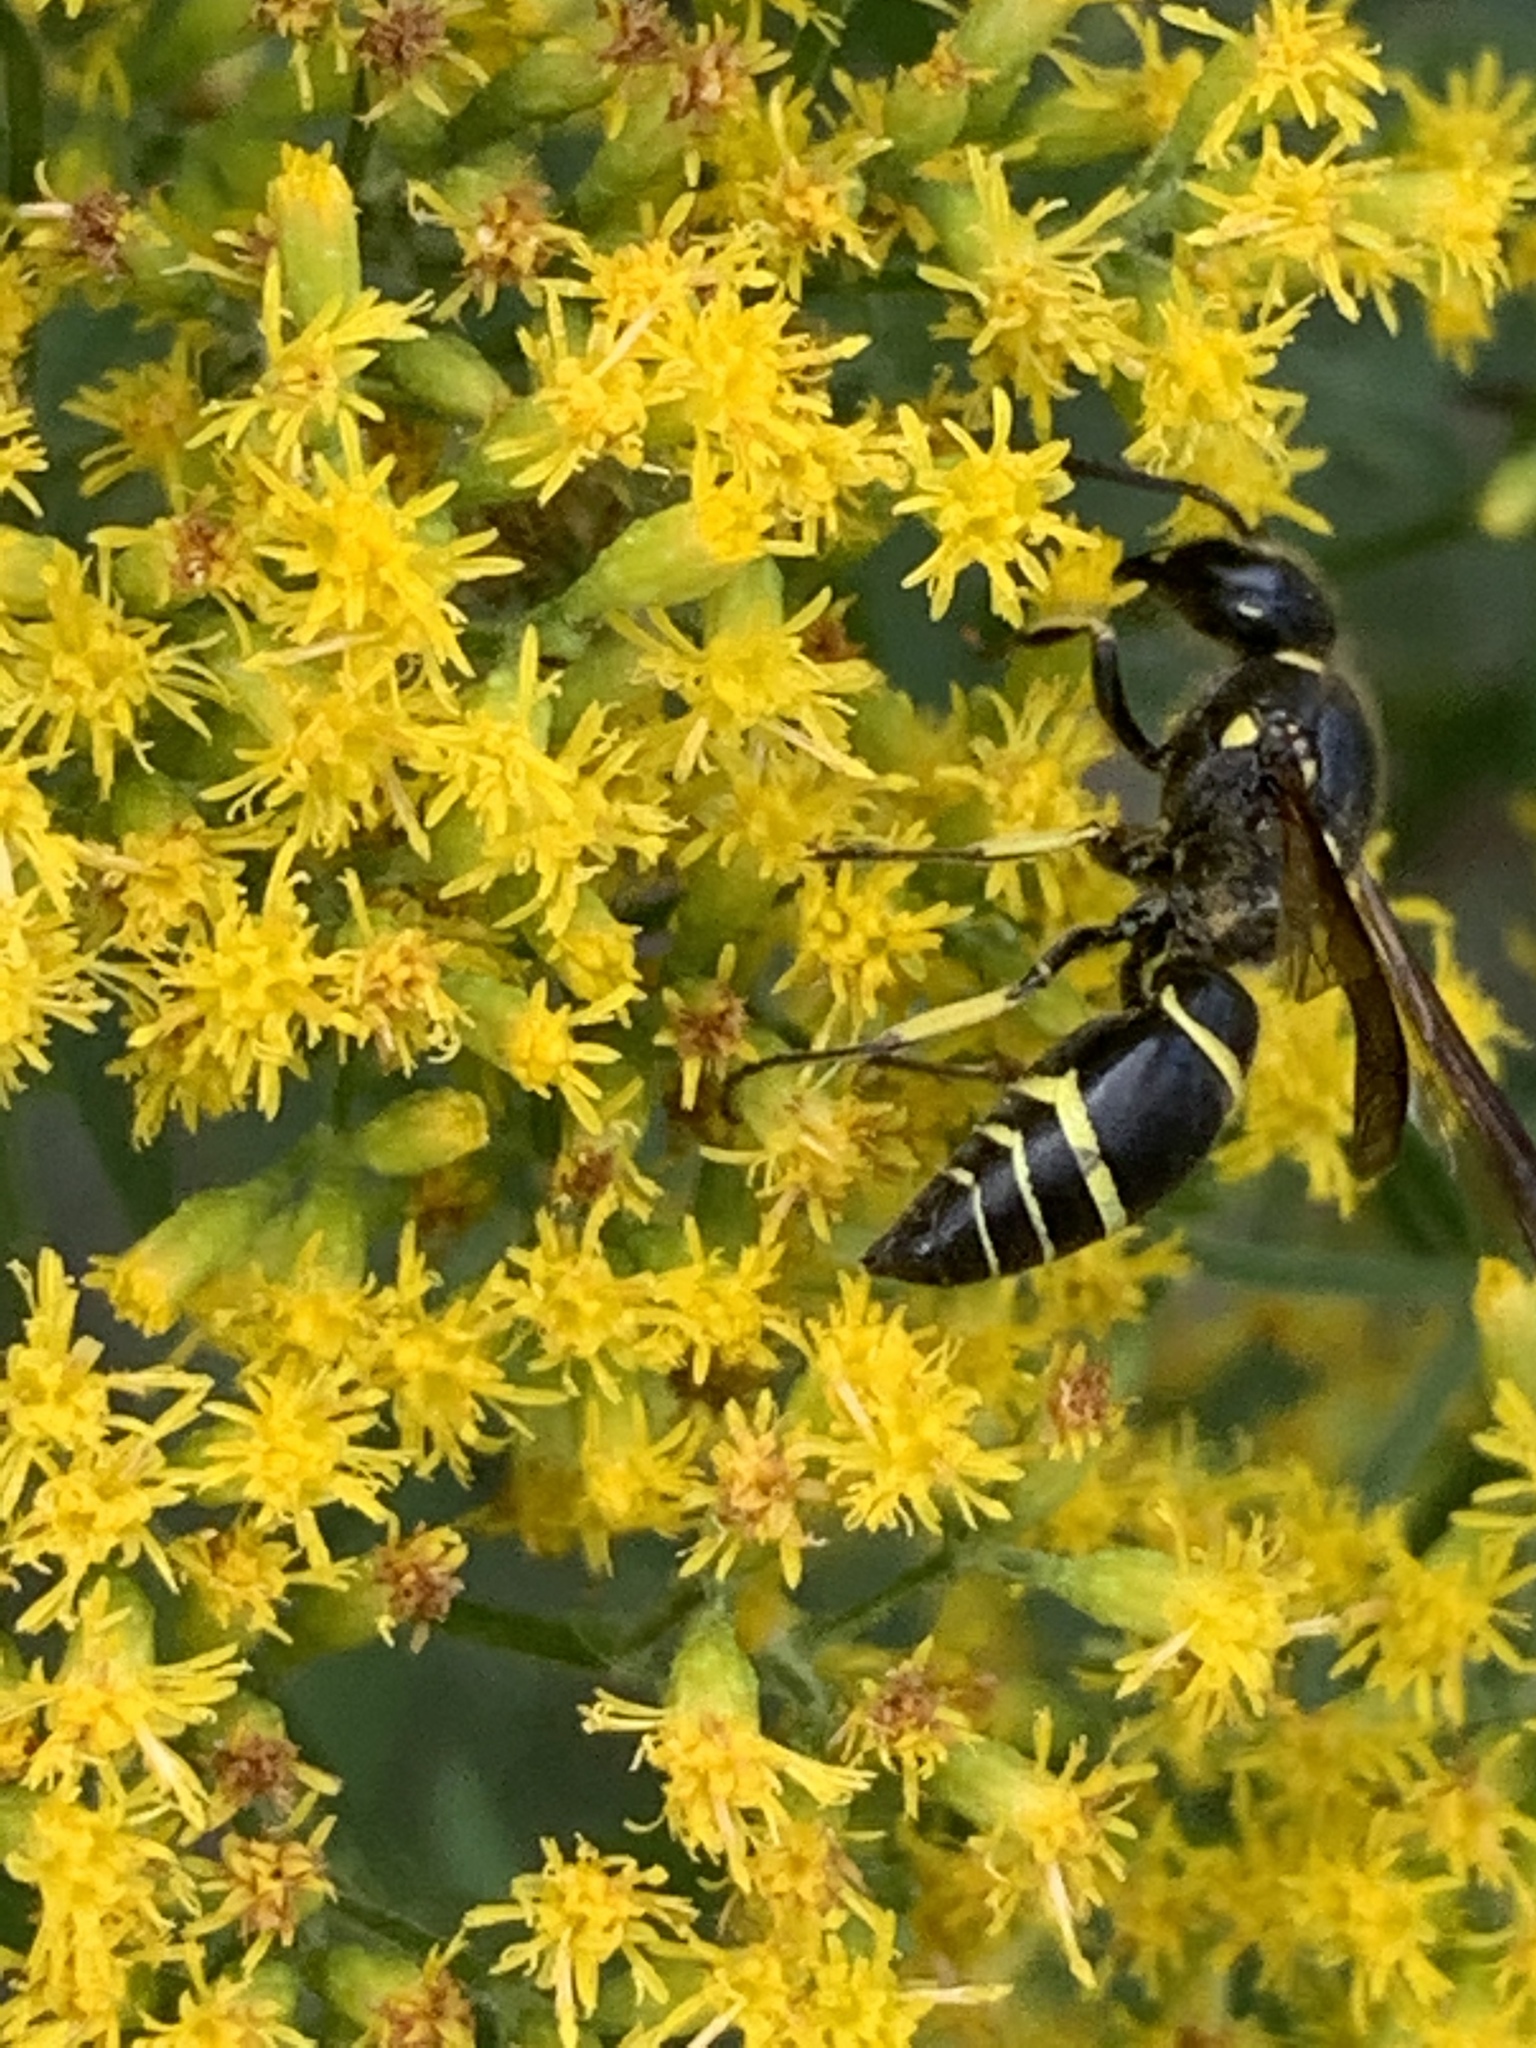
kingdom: Animalia
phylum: Arthropoda
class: Insecta
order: Hymenoptera
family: Vespidae
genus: Ancistrocerus
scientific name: Ancistrocerus
